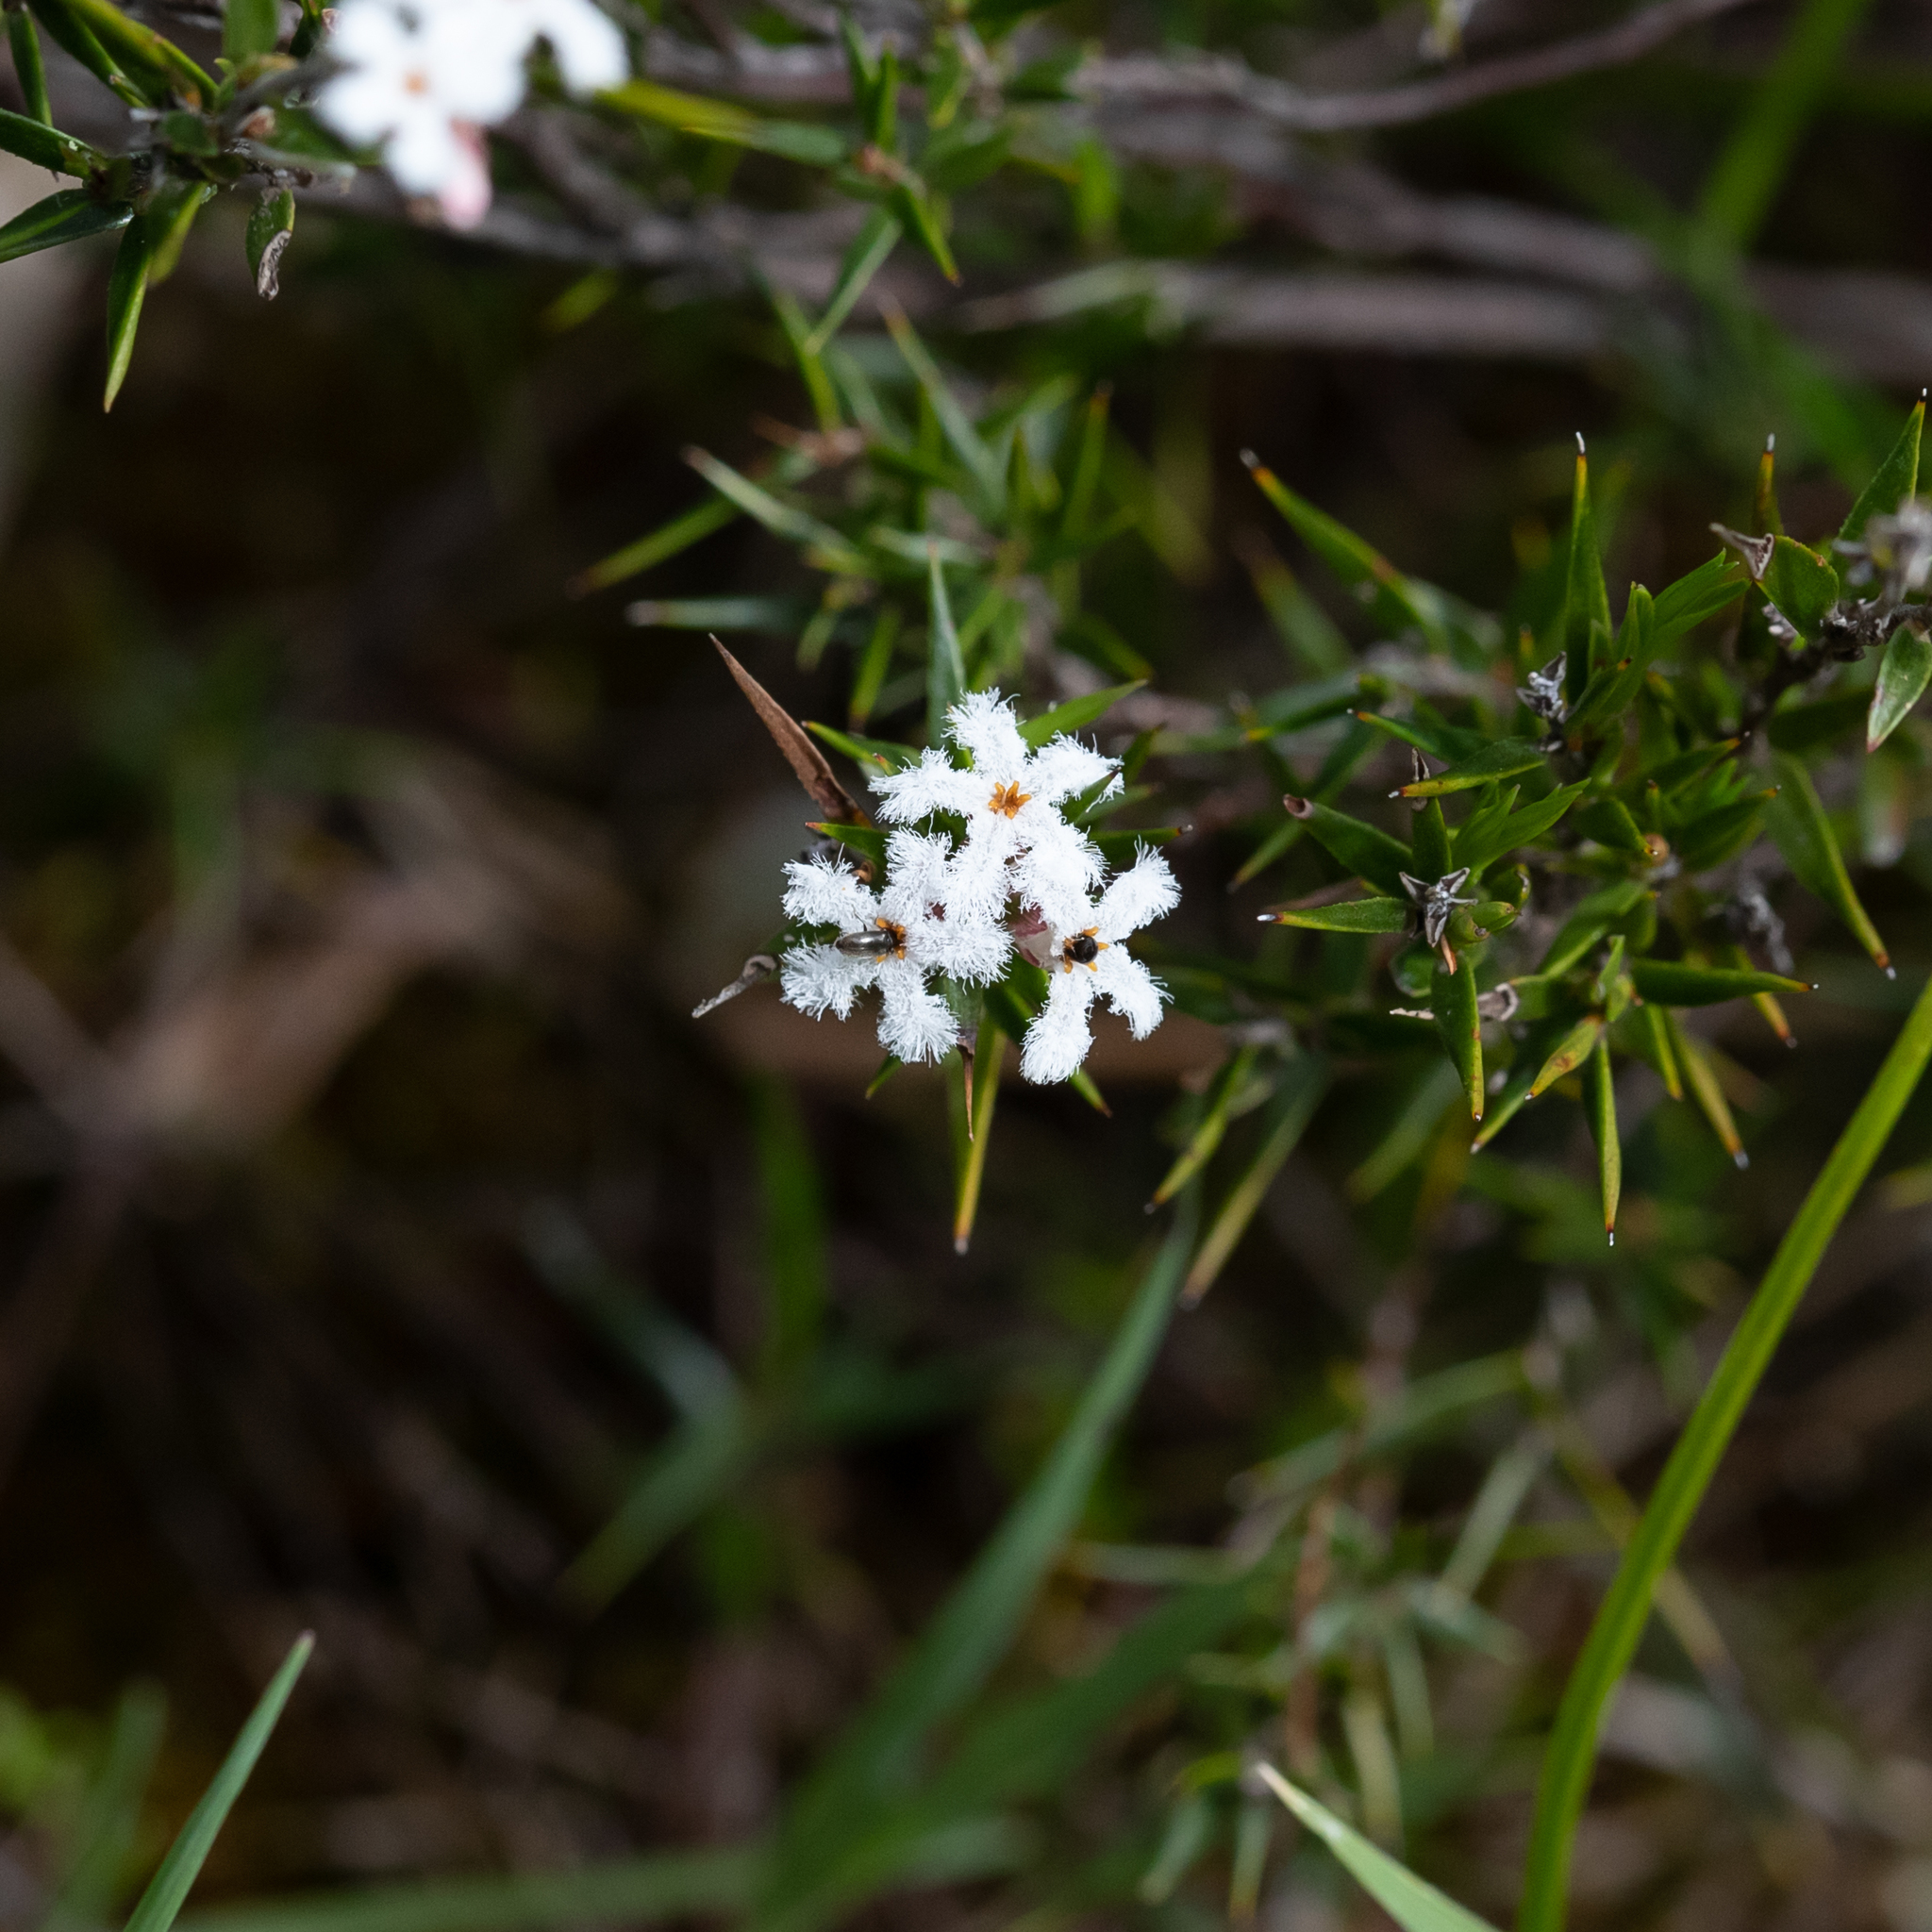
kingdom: Plantae
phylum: Tracheophyta
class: Magnoliopsida
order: Ericales
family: Ericaceae
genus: Leucopogon
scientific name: Leucopogon virgatus
